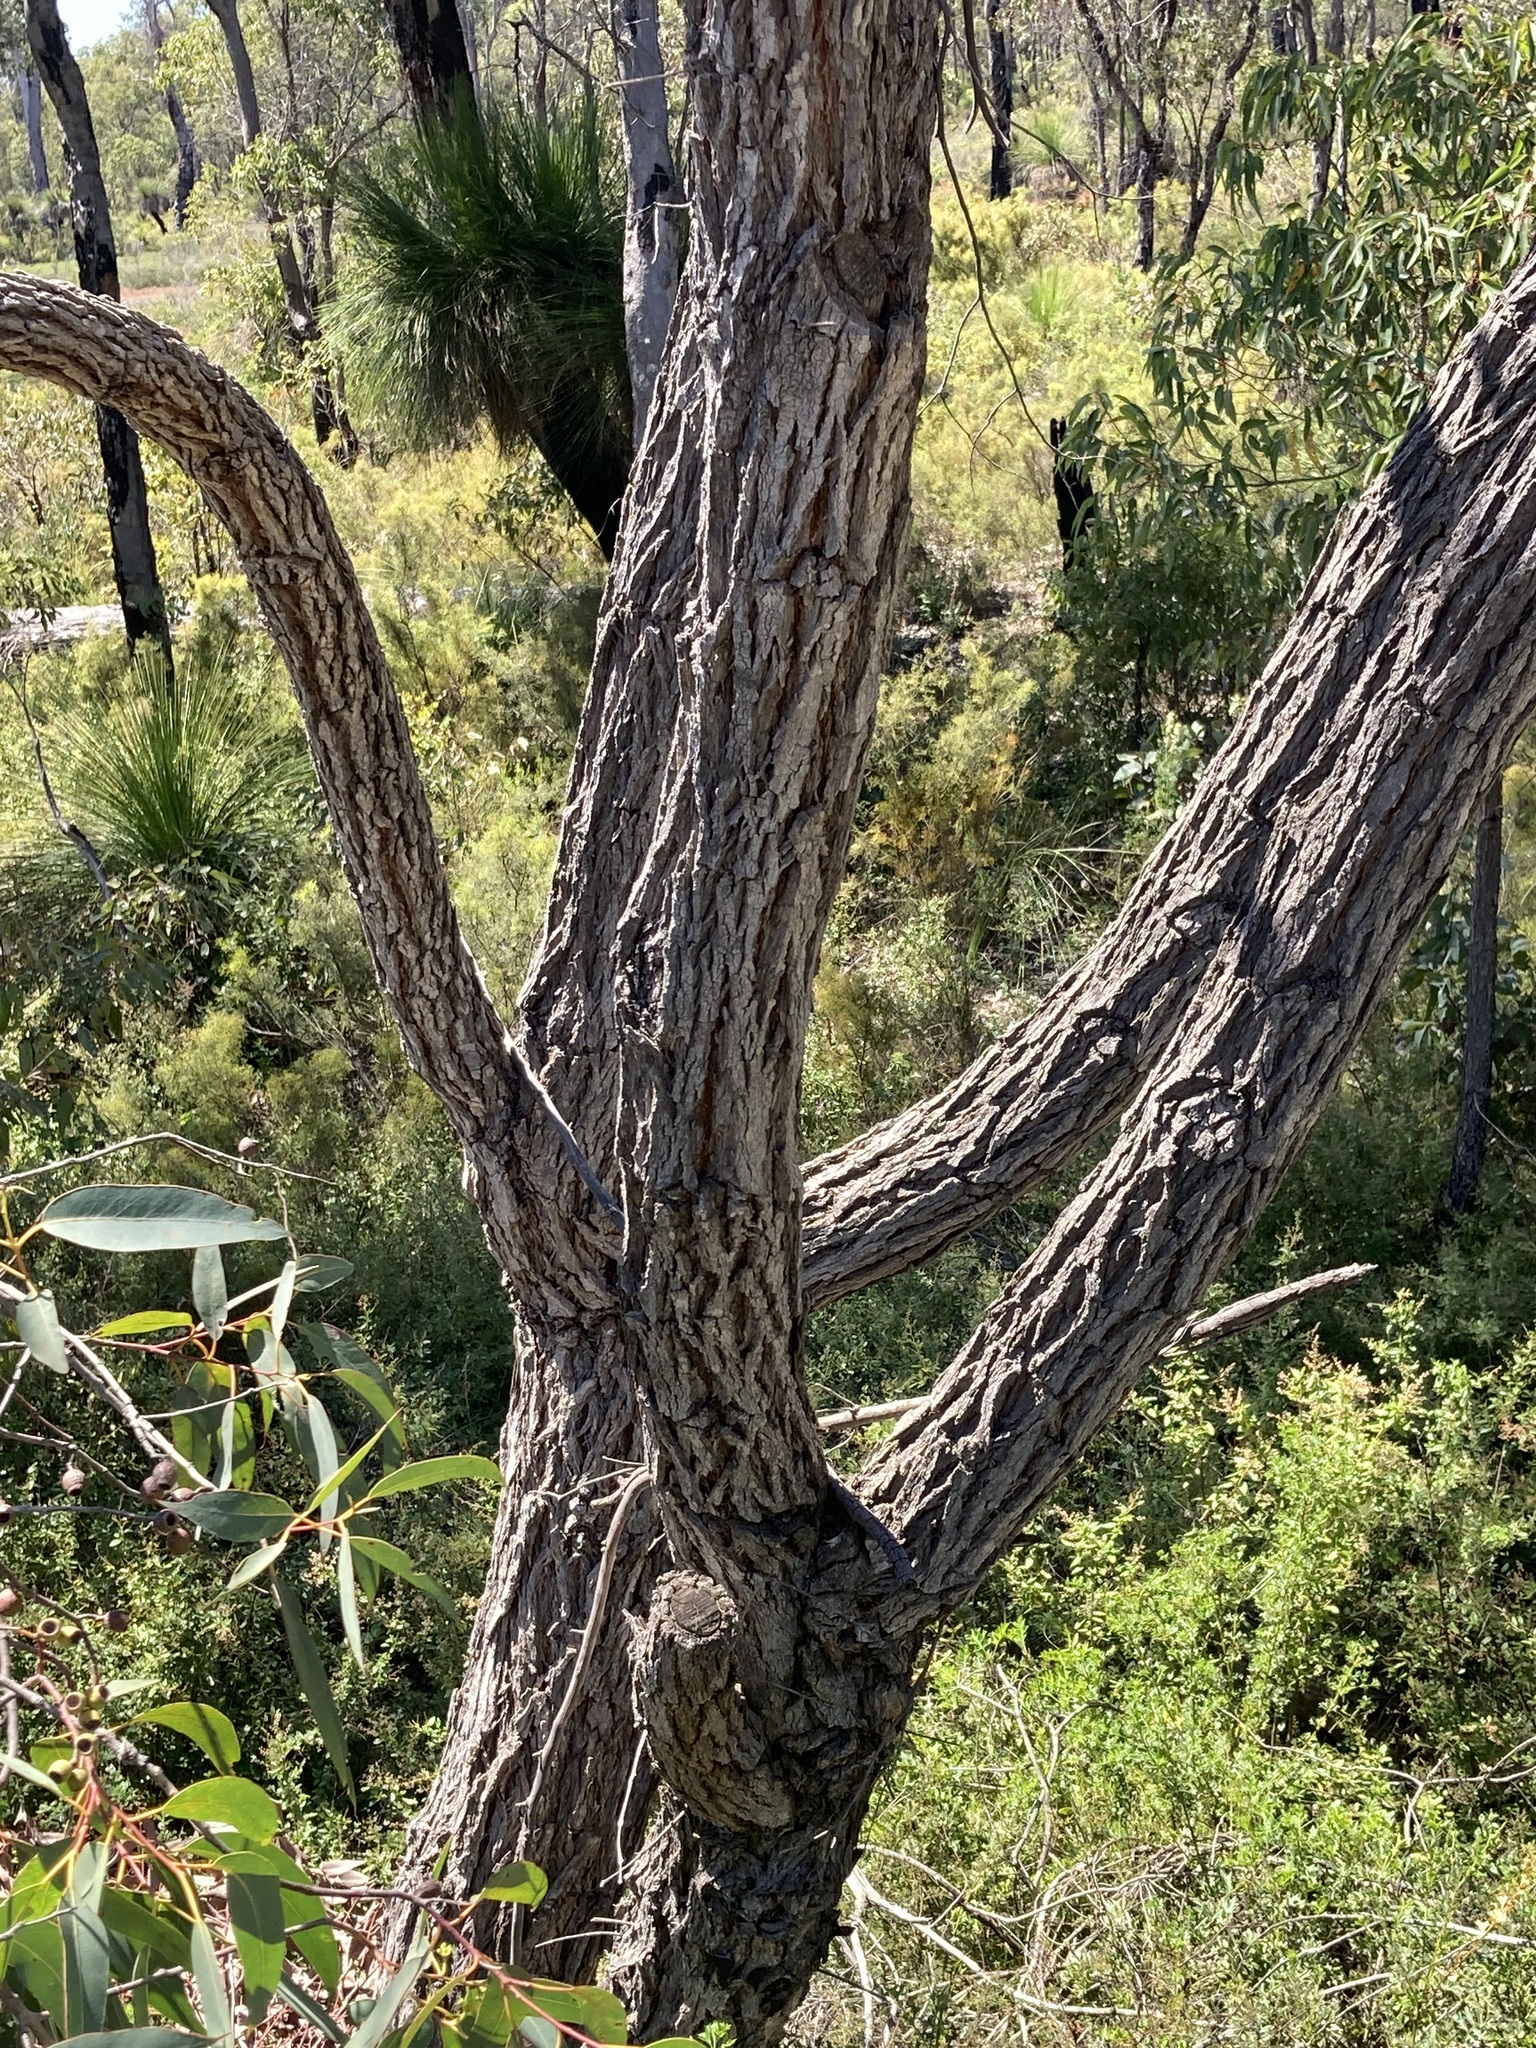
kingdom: Plantae
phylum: Tracheophyta
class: Magnoliopsida
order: Myrtales
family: Myrtaceae
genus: Eucalyptus
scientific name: Eucalyptus patens
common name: Swan river blackbutt
